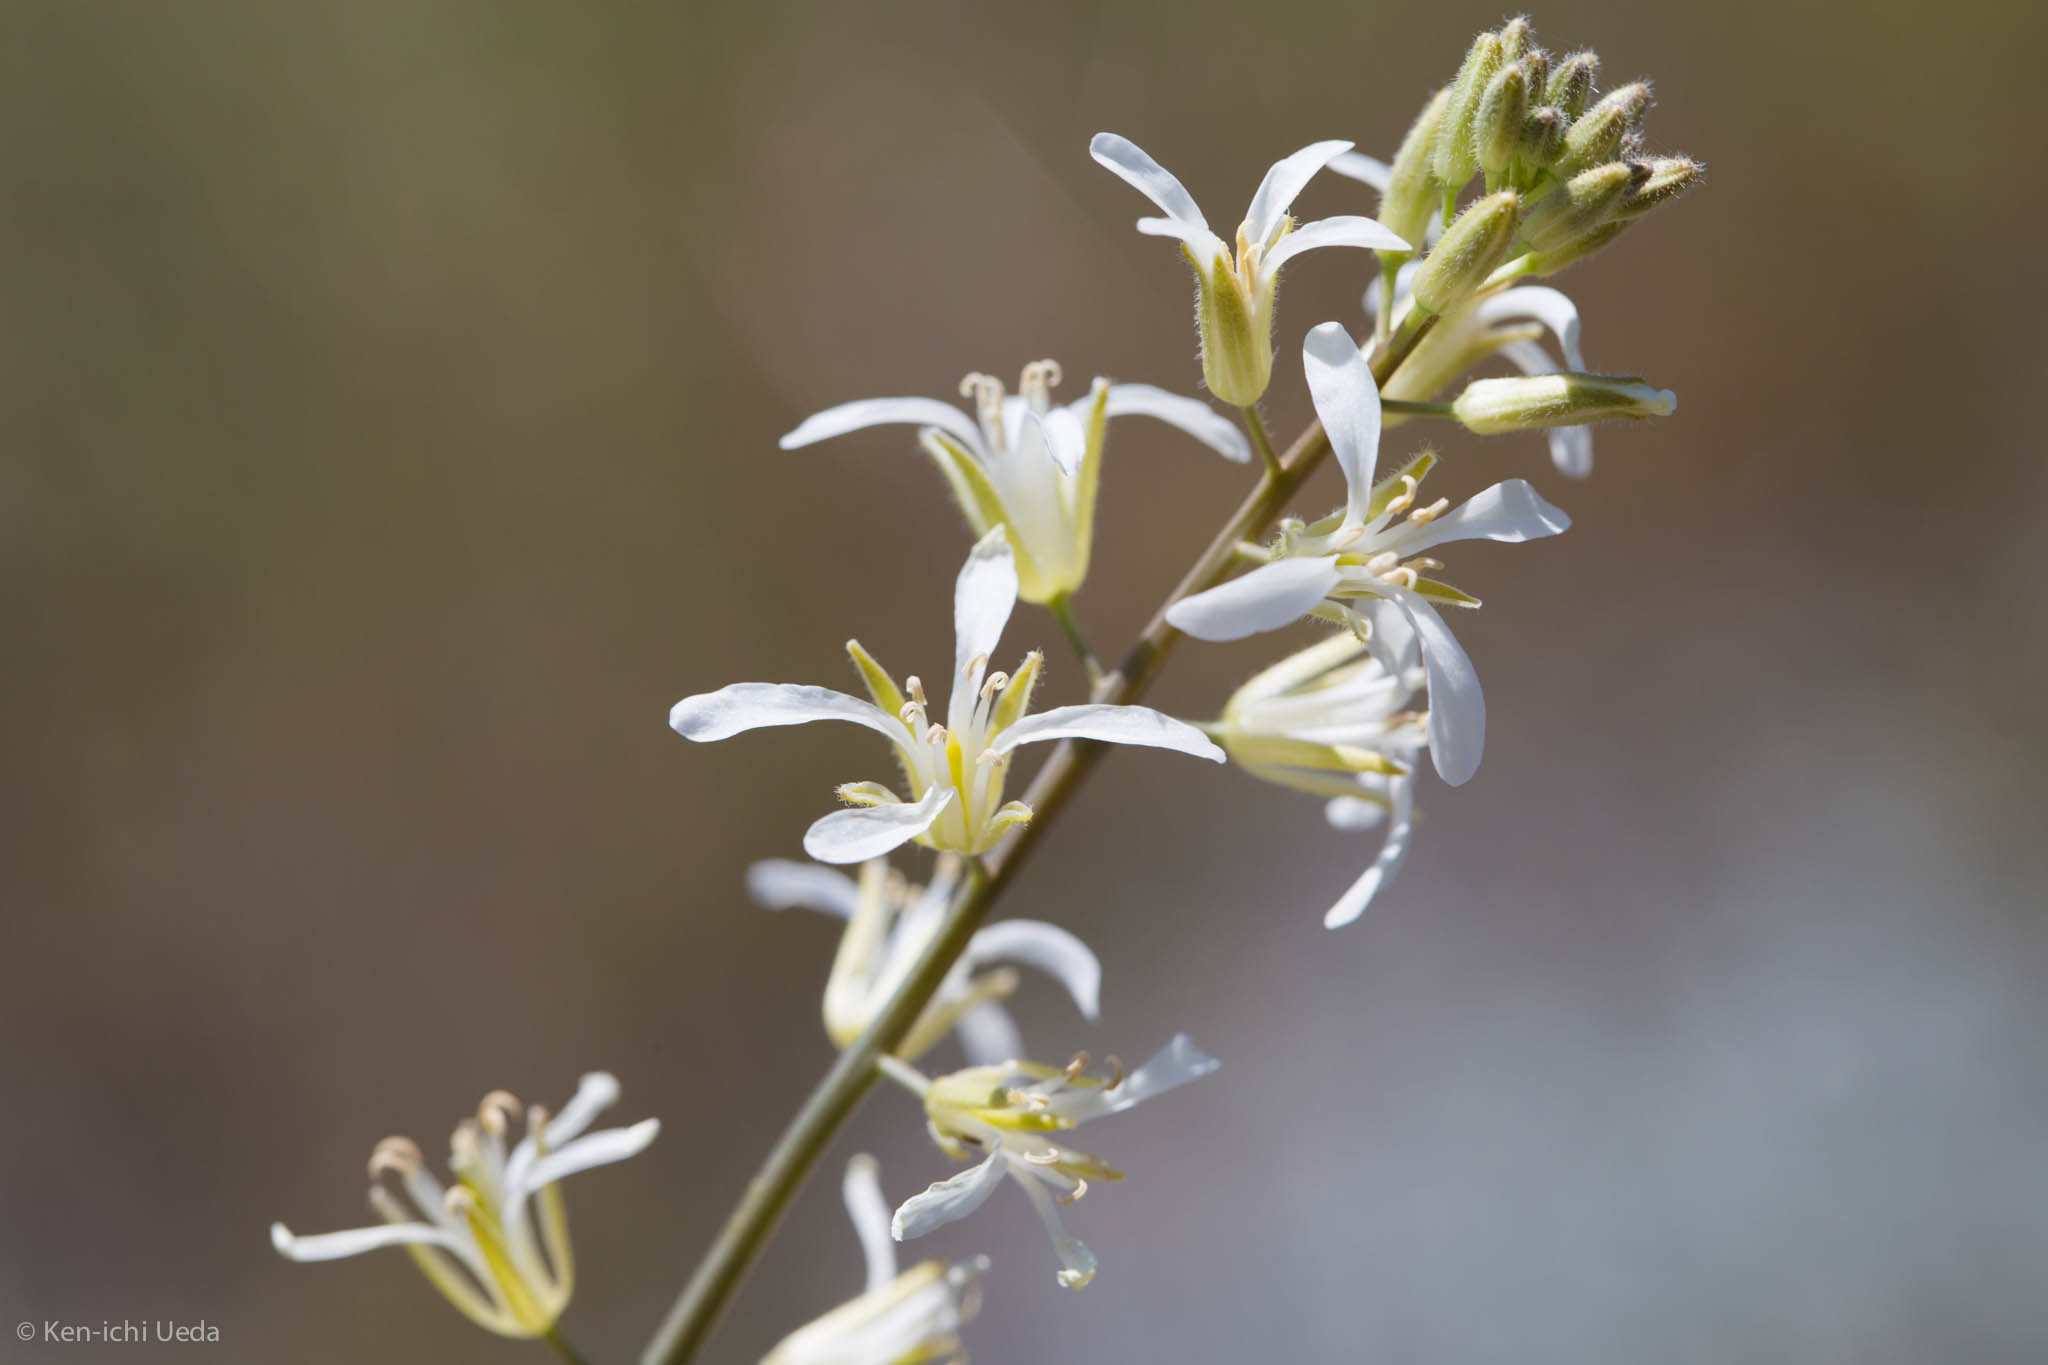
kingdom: Plantae
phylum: Tracheophyta
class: Magnoliopsida
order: Brassicales
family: Brassicaceae
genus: Streptanthus
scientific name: Streptanthus flavescens
